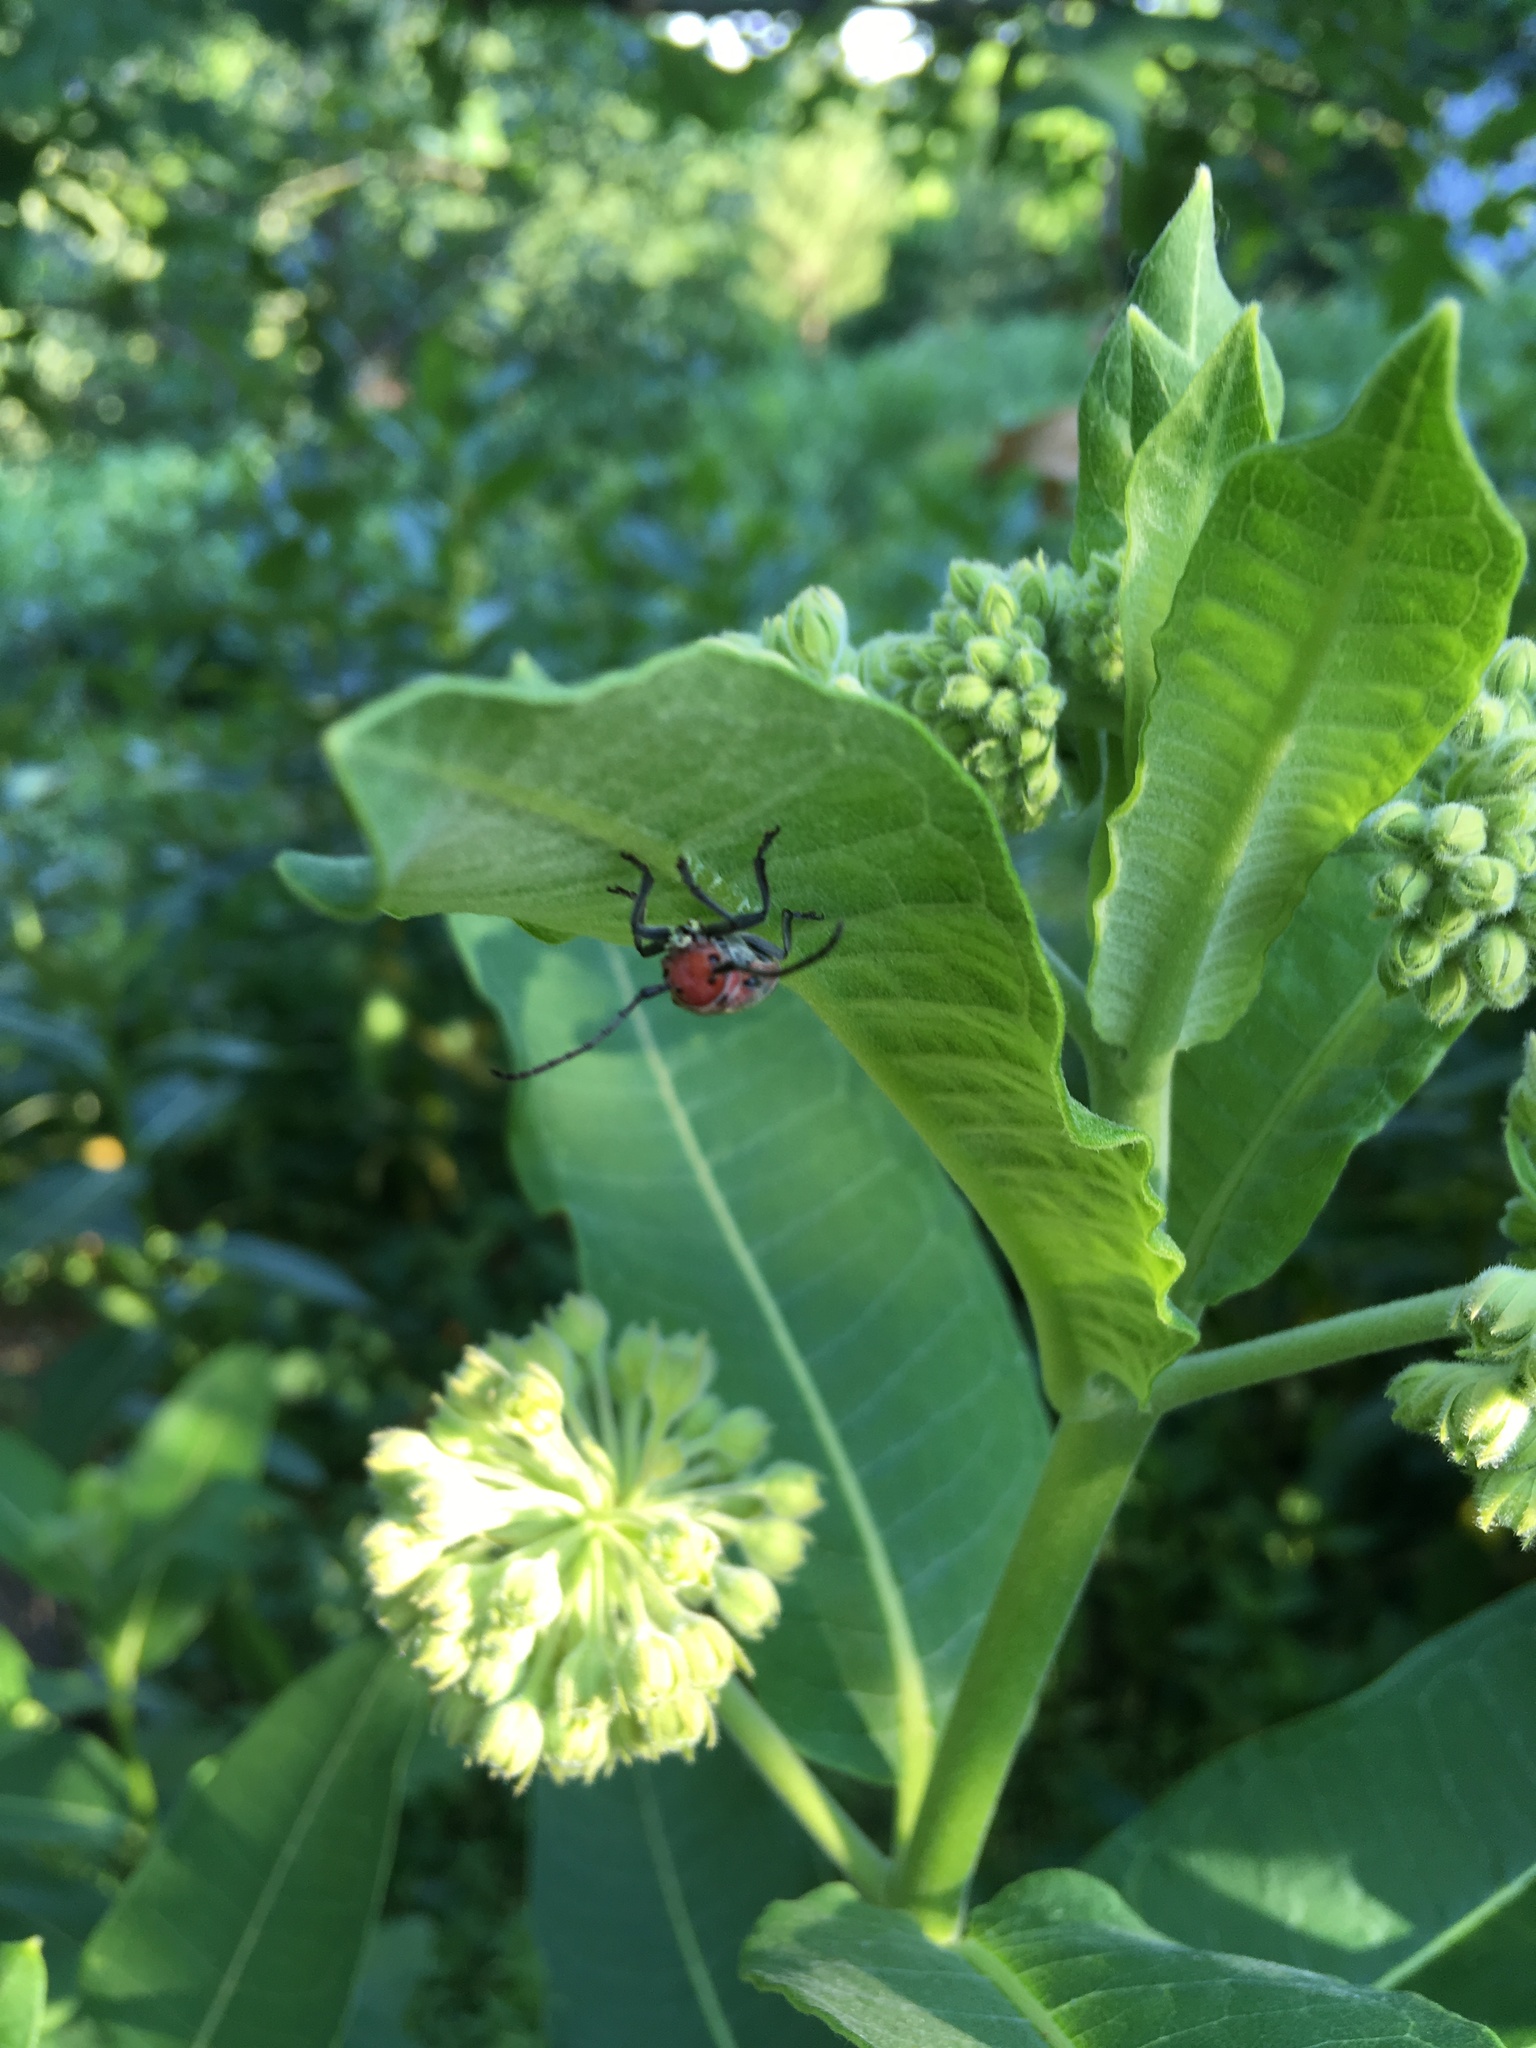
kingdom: Animalia
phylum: Arthropoda
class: Insecta
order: Coleoptera
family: Cerambycidae
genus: Tetraopes
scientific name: Tetraopes tetrophthalmus
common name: Red milkweed beetle
